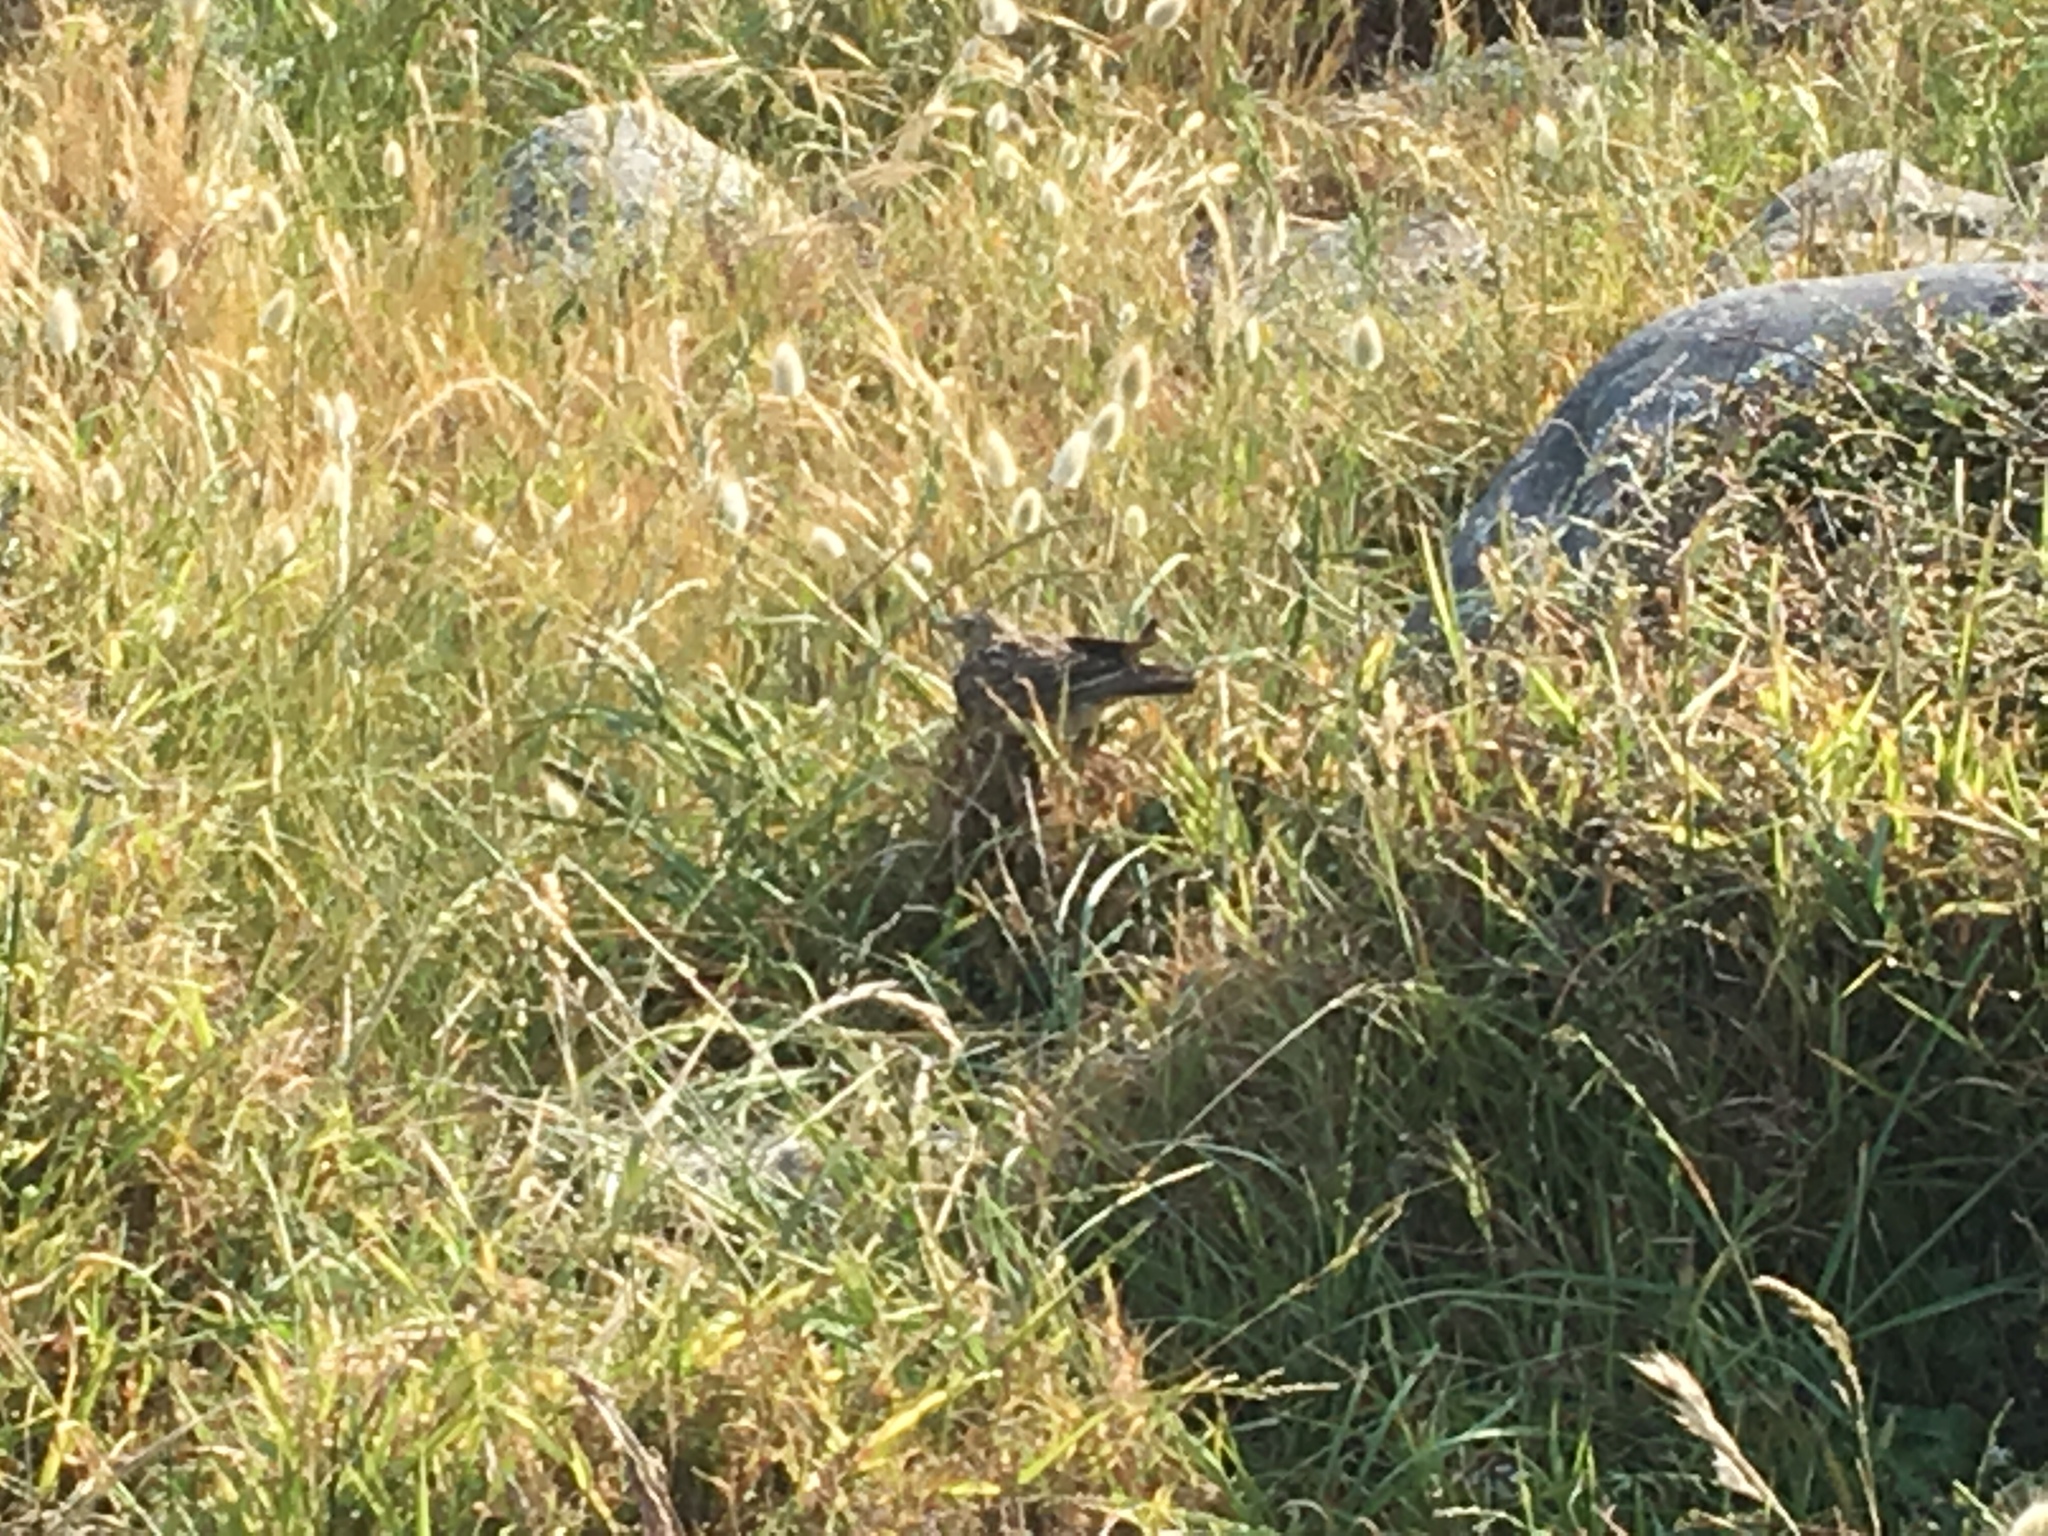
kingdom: Animalia
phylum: Chordata
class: Aves
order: Passeriformes
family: Alaudidae
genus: Alauda
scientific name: Alauda arvensis
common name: Eurasian skylark
